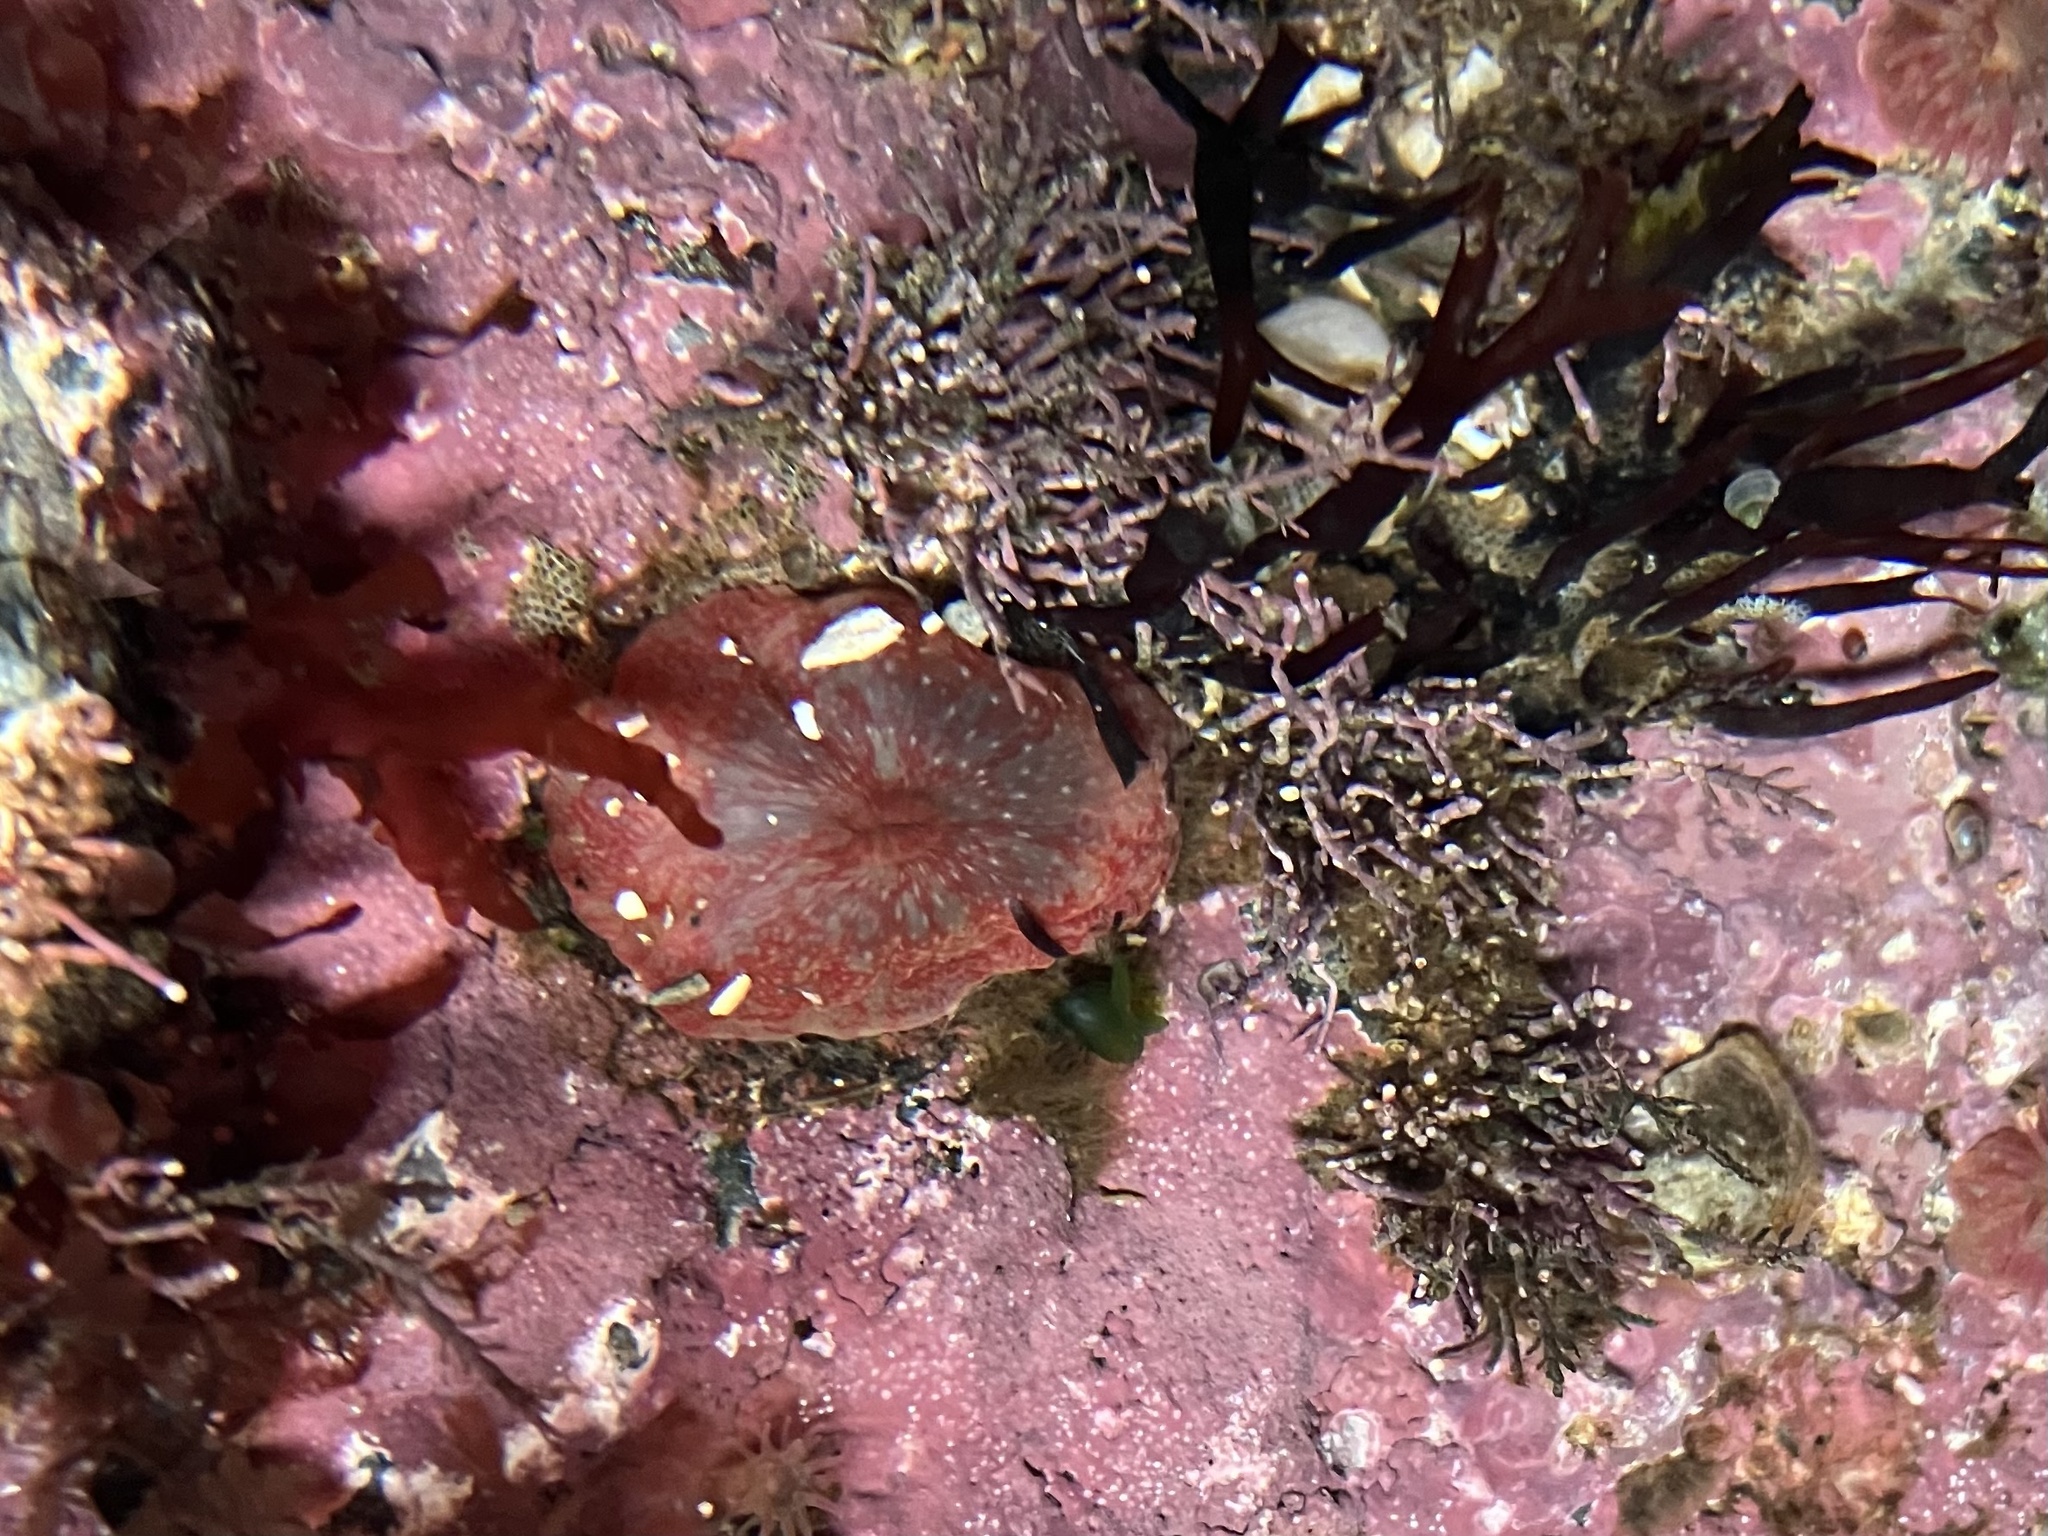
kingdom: Animalia
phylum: Cnidaria
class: Anthozoa
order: Actiniaria
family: Actiniidae
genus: Urticina
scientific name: Urticina crassicornis
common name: Mottled anemone
